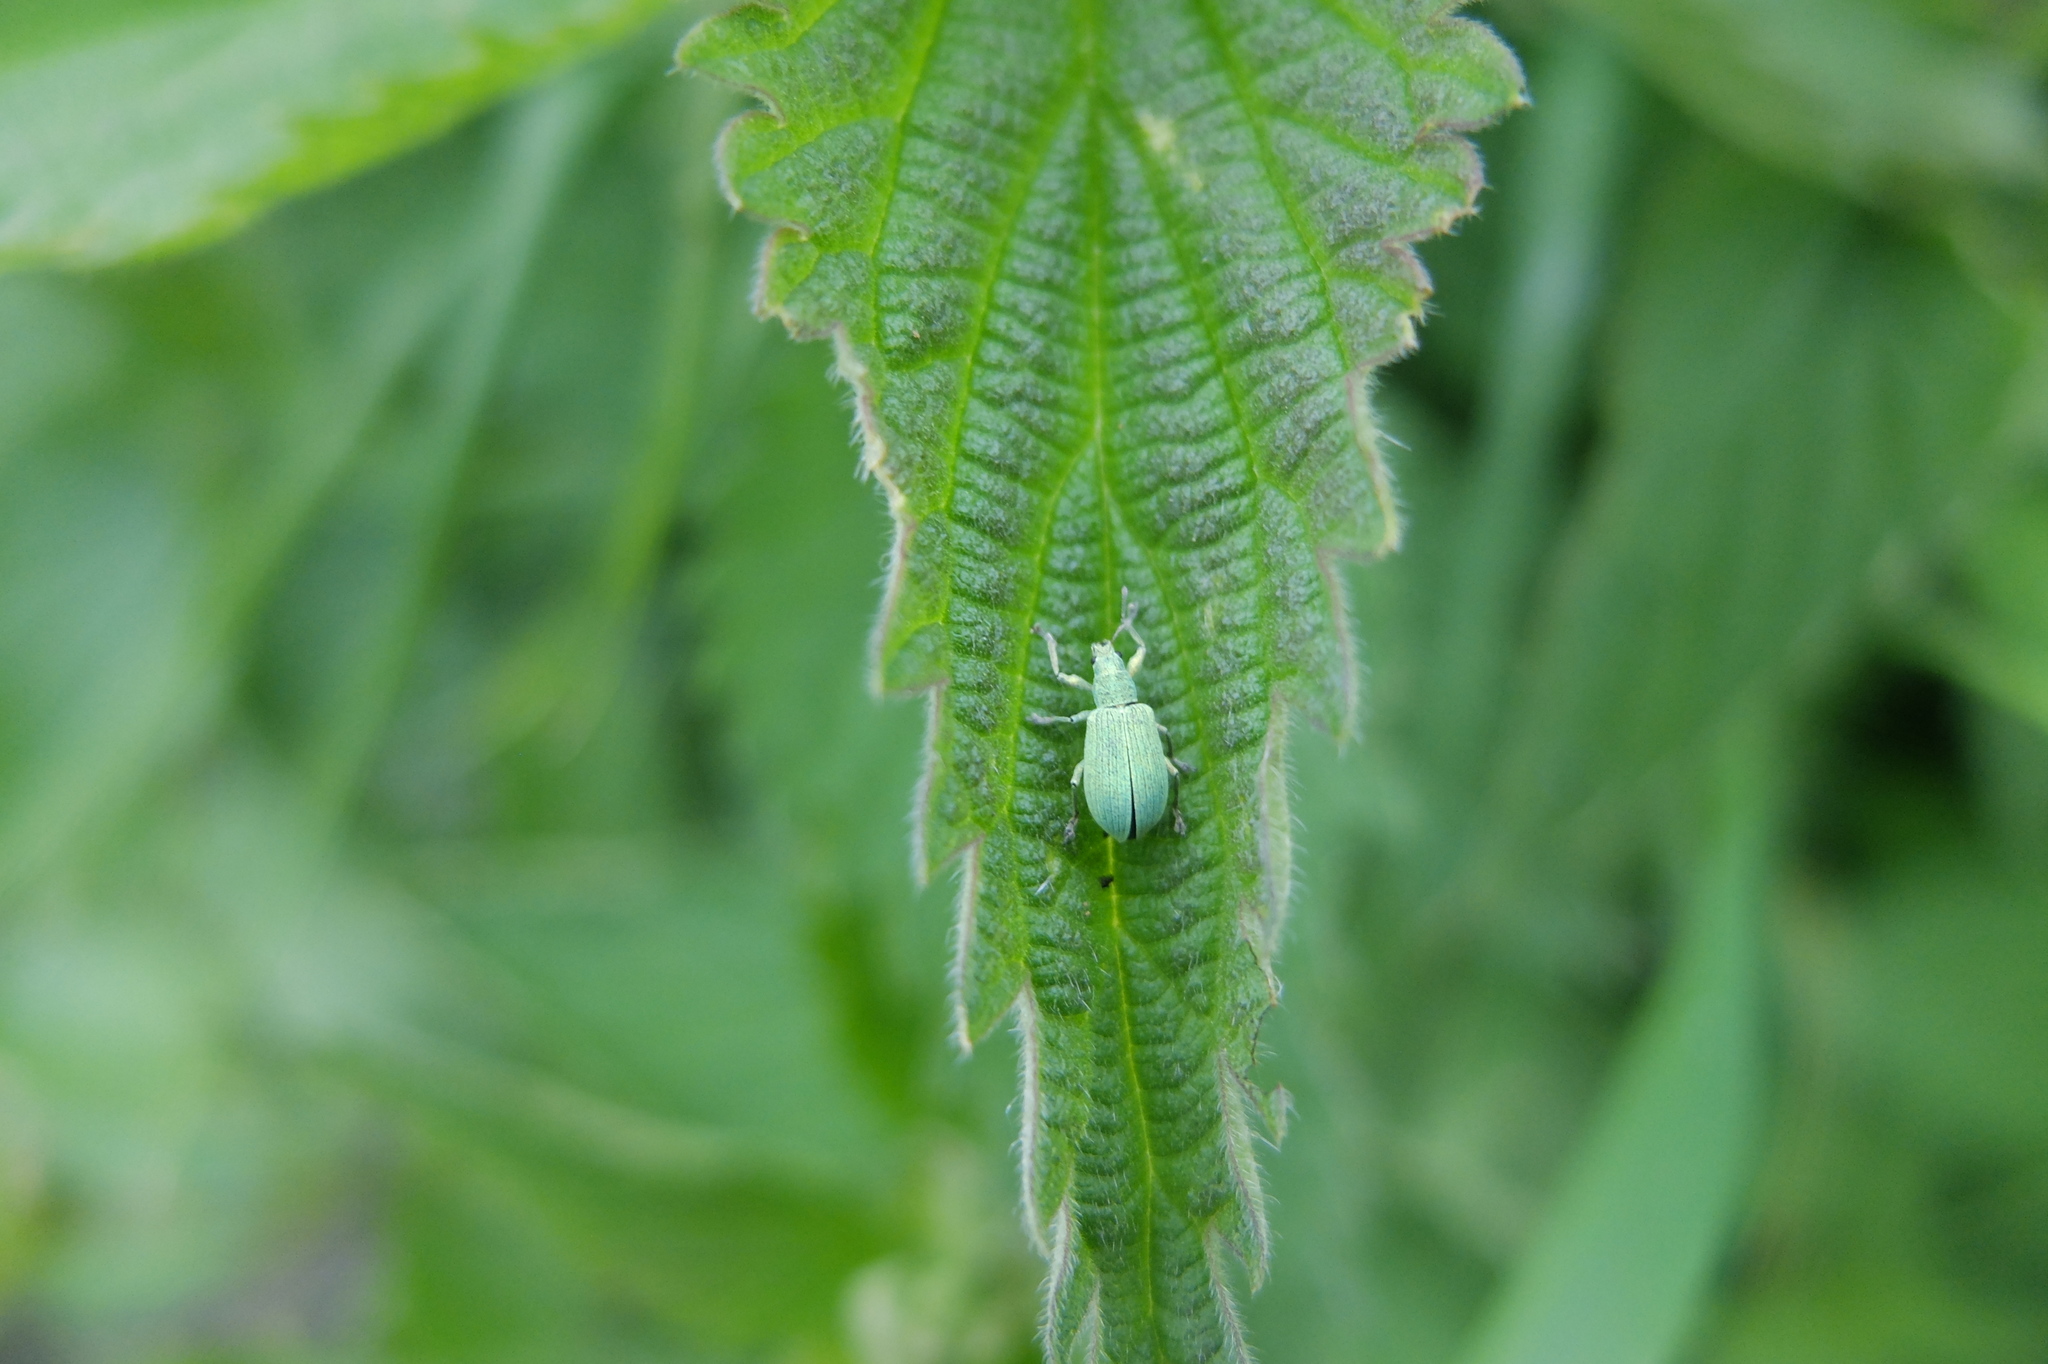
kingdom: Animalia
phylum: Arthropoda
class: Insecta
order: Coleoptera
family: Curculionidae
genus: Phyllobius
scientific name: Phyllobius pomaceus
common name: Green nettle weevil
